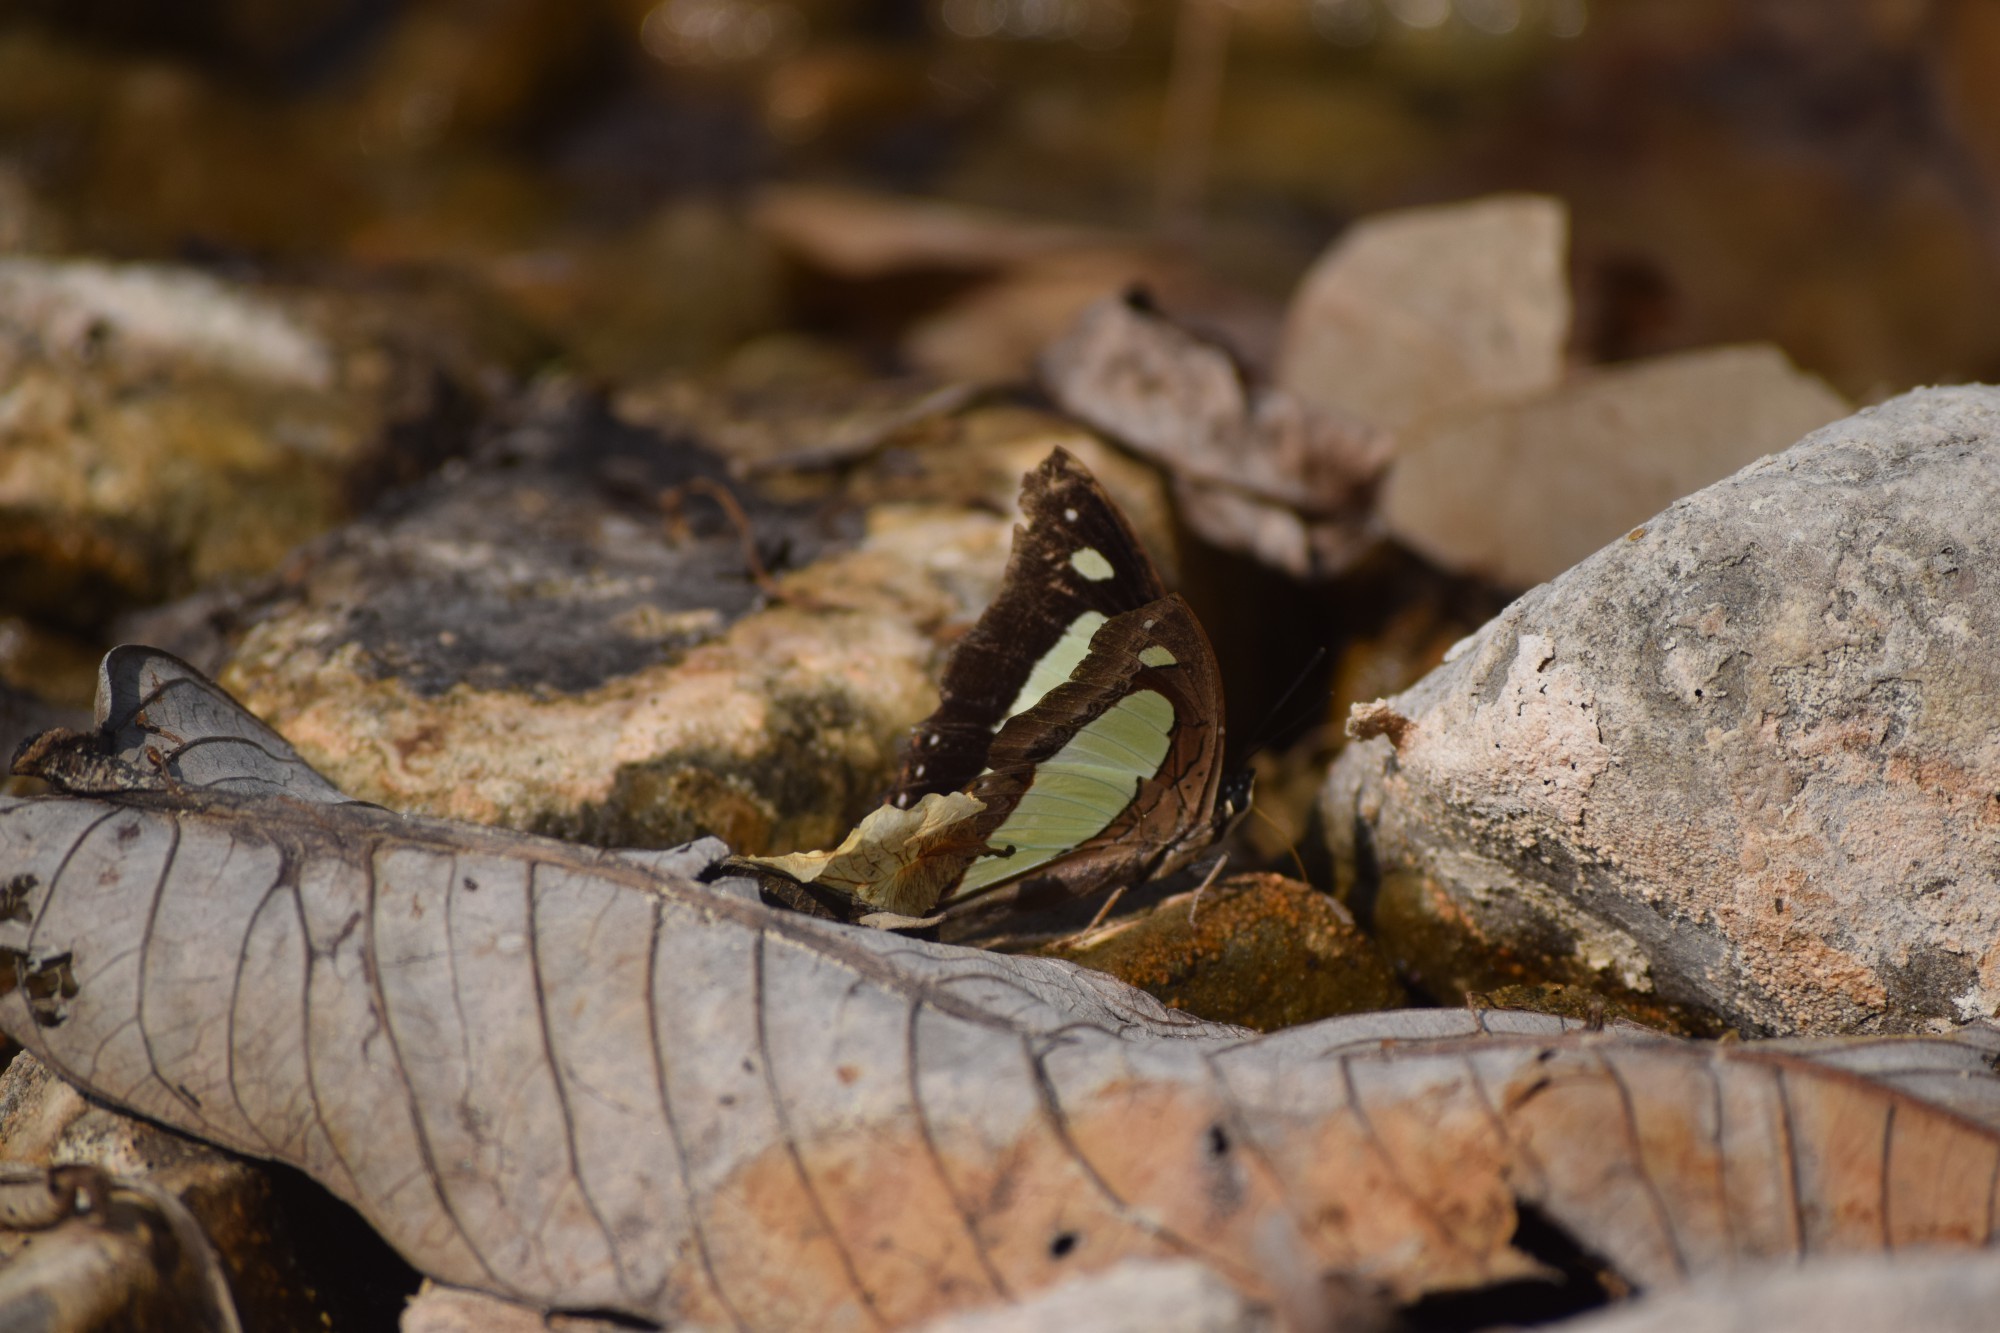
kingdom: Animalia
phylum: Arthropoda
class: Insecta
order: Lepidoptera
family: Nymphalidae
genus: Polyura
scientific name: Polyura
